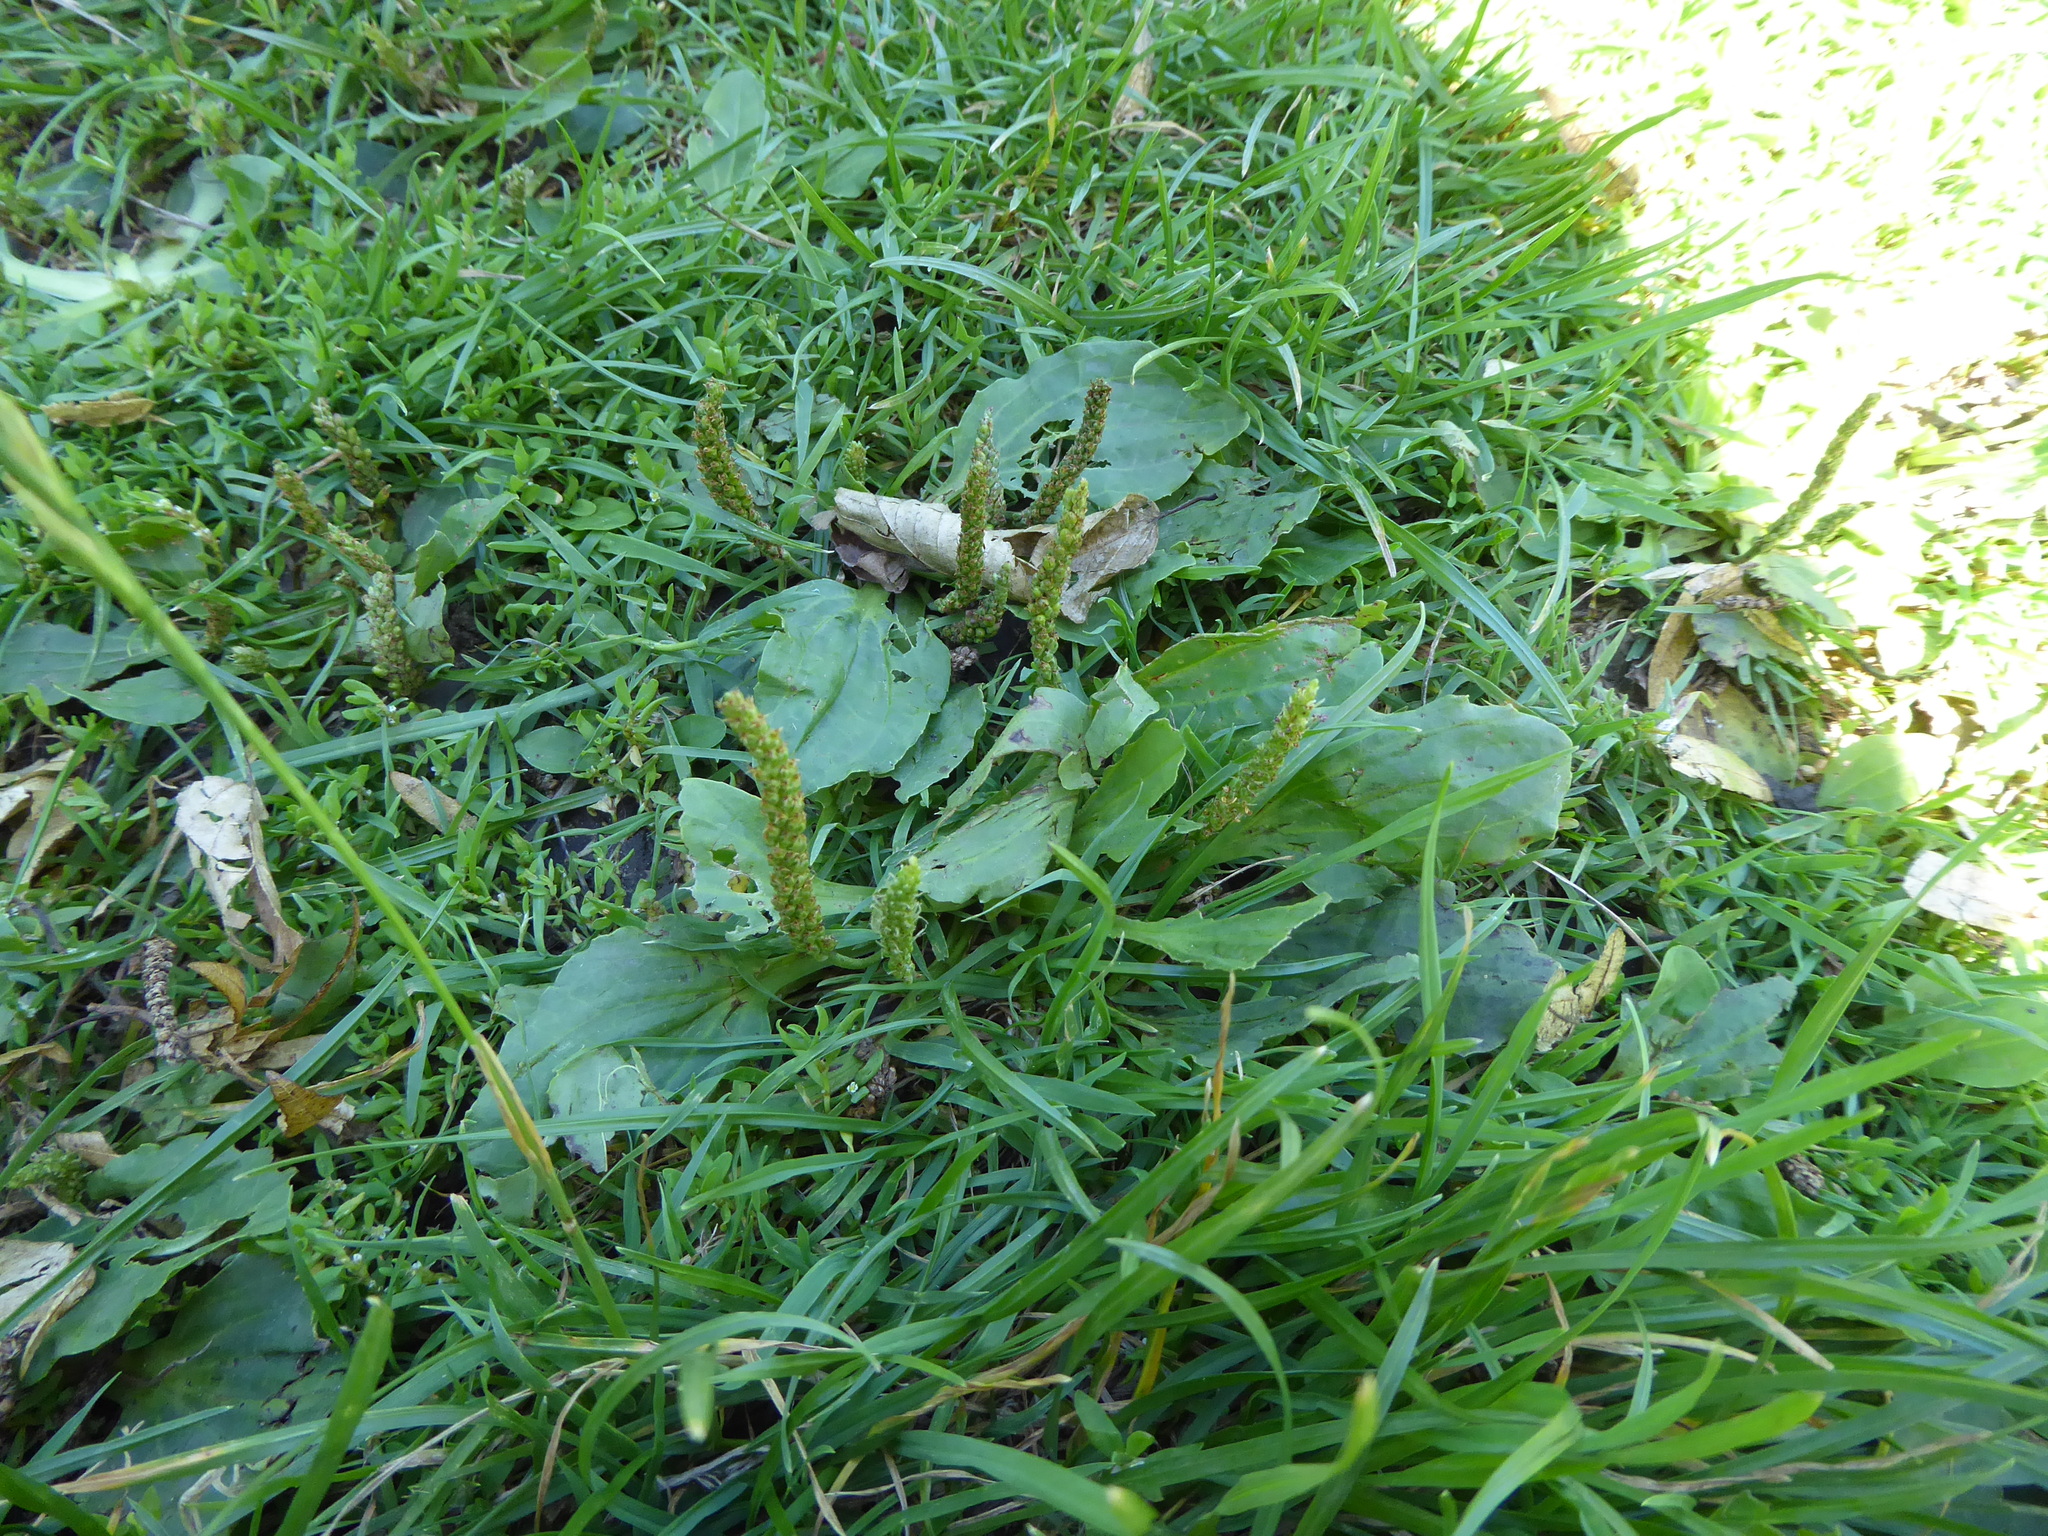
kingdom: Plantae
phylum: Tracheophyta
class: Magnoliopsida
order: Lamiales
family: Plantaginaceae
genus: Plantago
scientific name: Plantago major
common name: Common plantain
